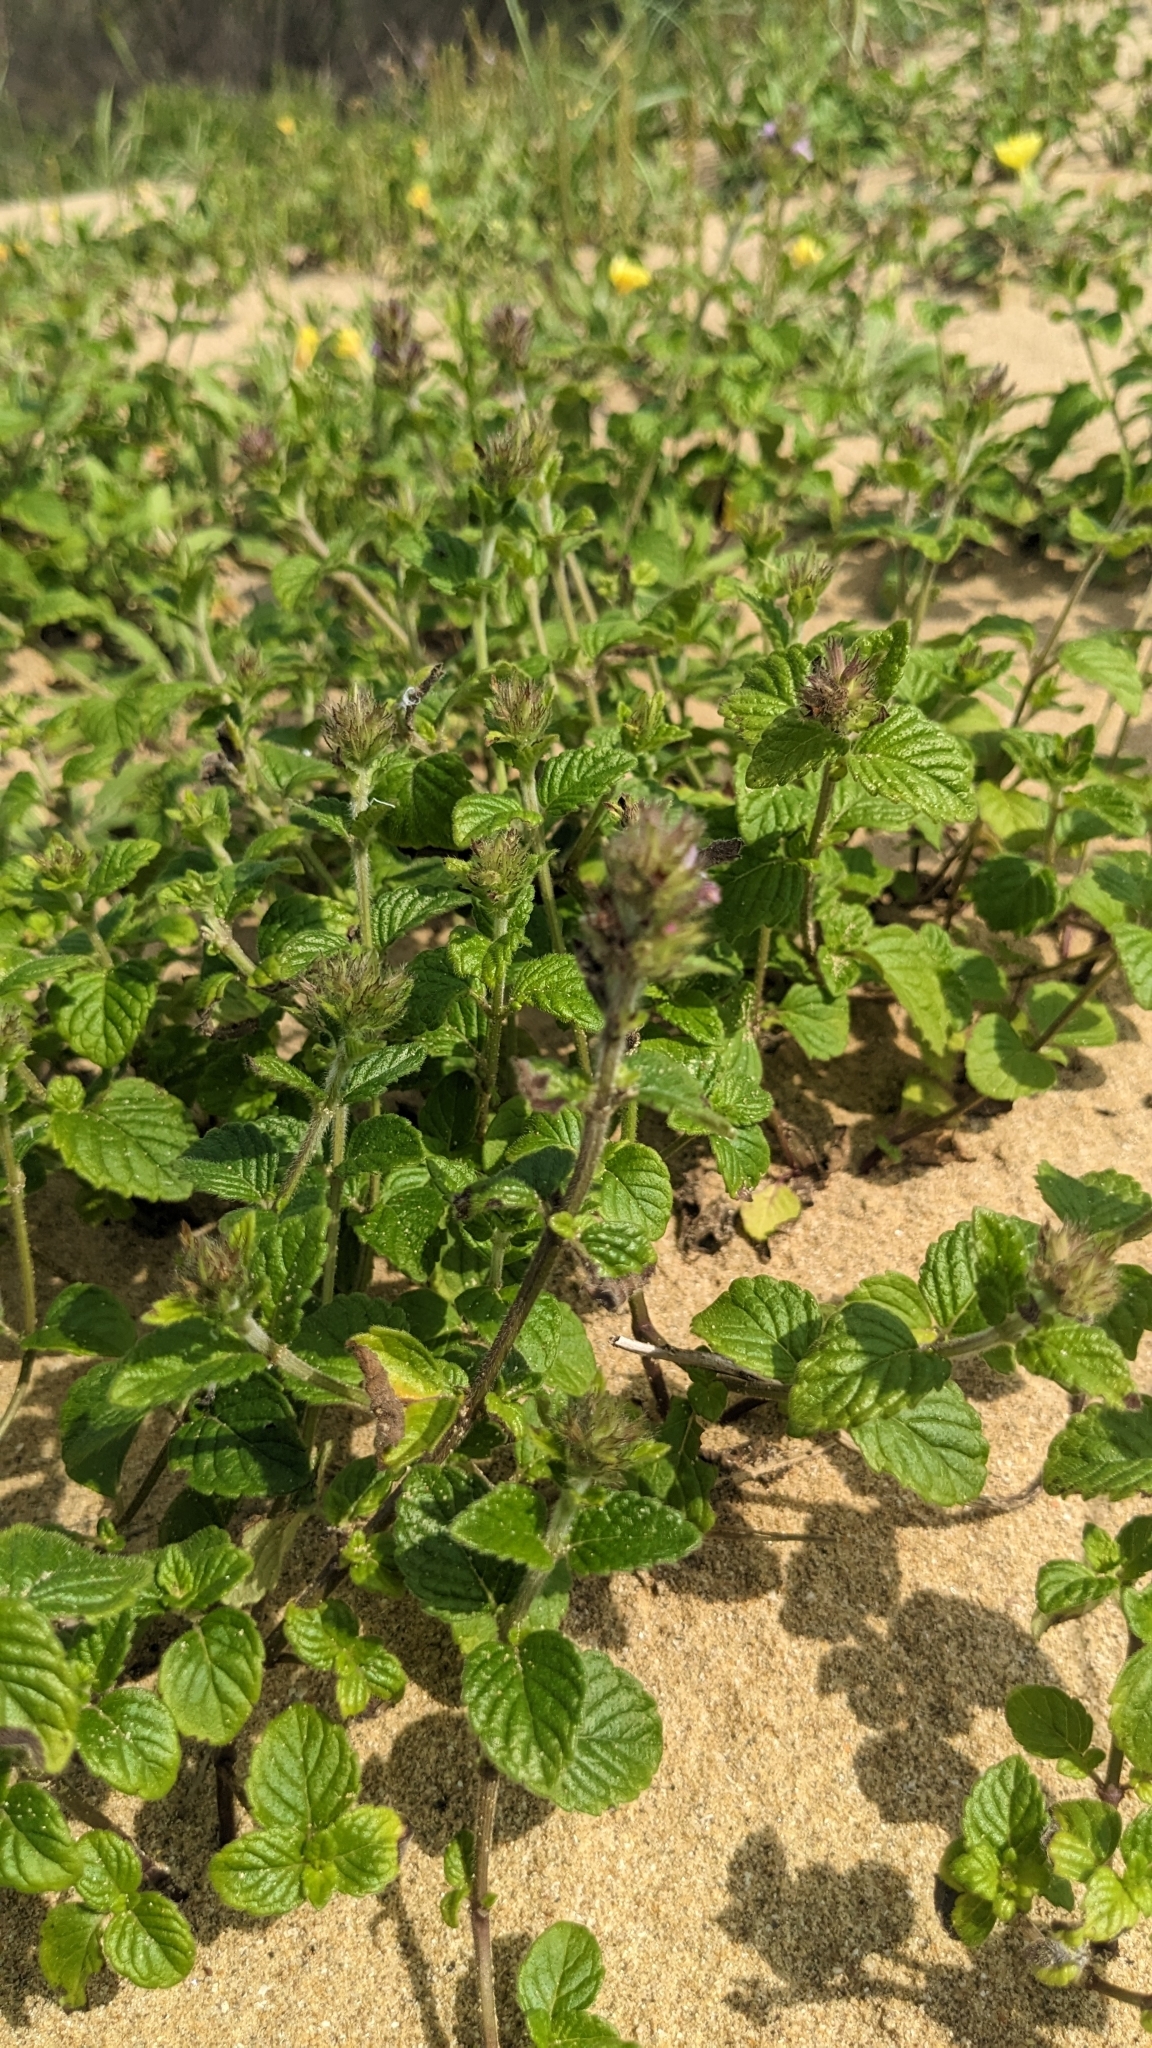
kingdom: Plantae
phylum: Tracheophyta
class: Magnoliopsida
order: Lamiales
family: Lamiaceae
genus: Clinopodium
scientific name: Clinopodium chinense
